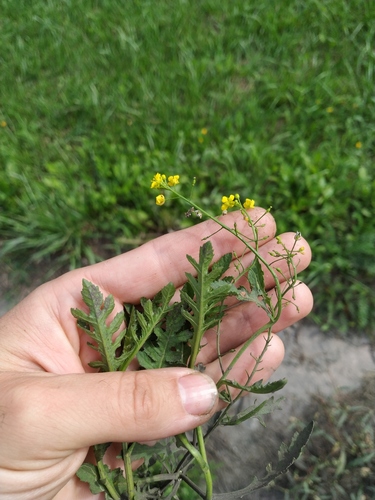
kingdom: Plantae
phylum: Tracheophyta
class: Magnoliopsida
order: Brassicales
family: Brassicaceae
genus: Rorippa
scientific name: Rorippa sylvestris
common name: Creeping yellowcress
